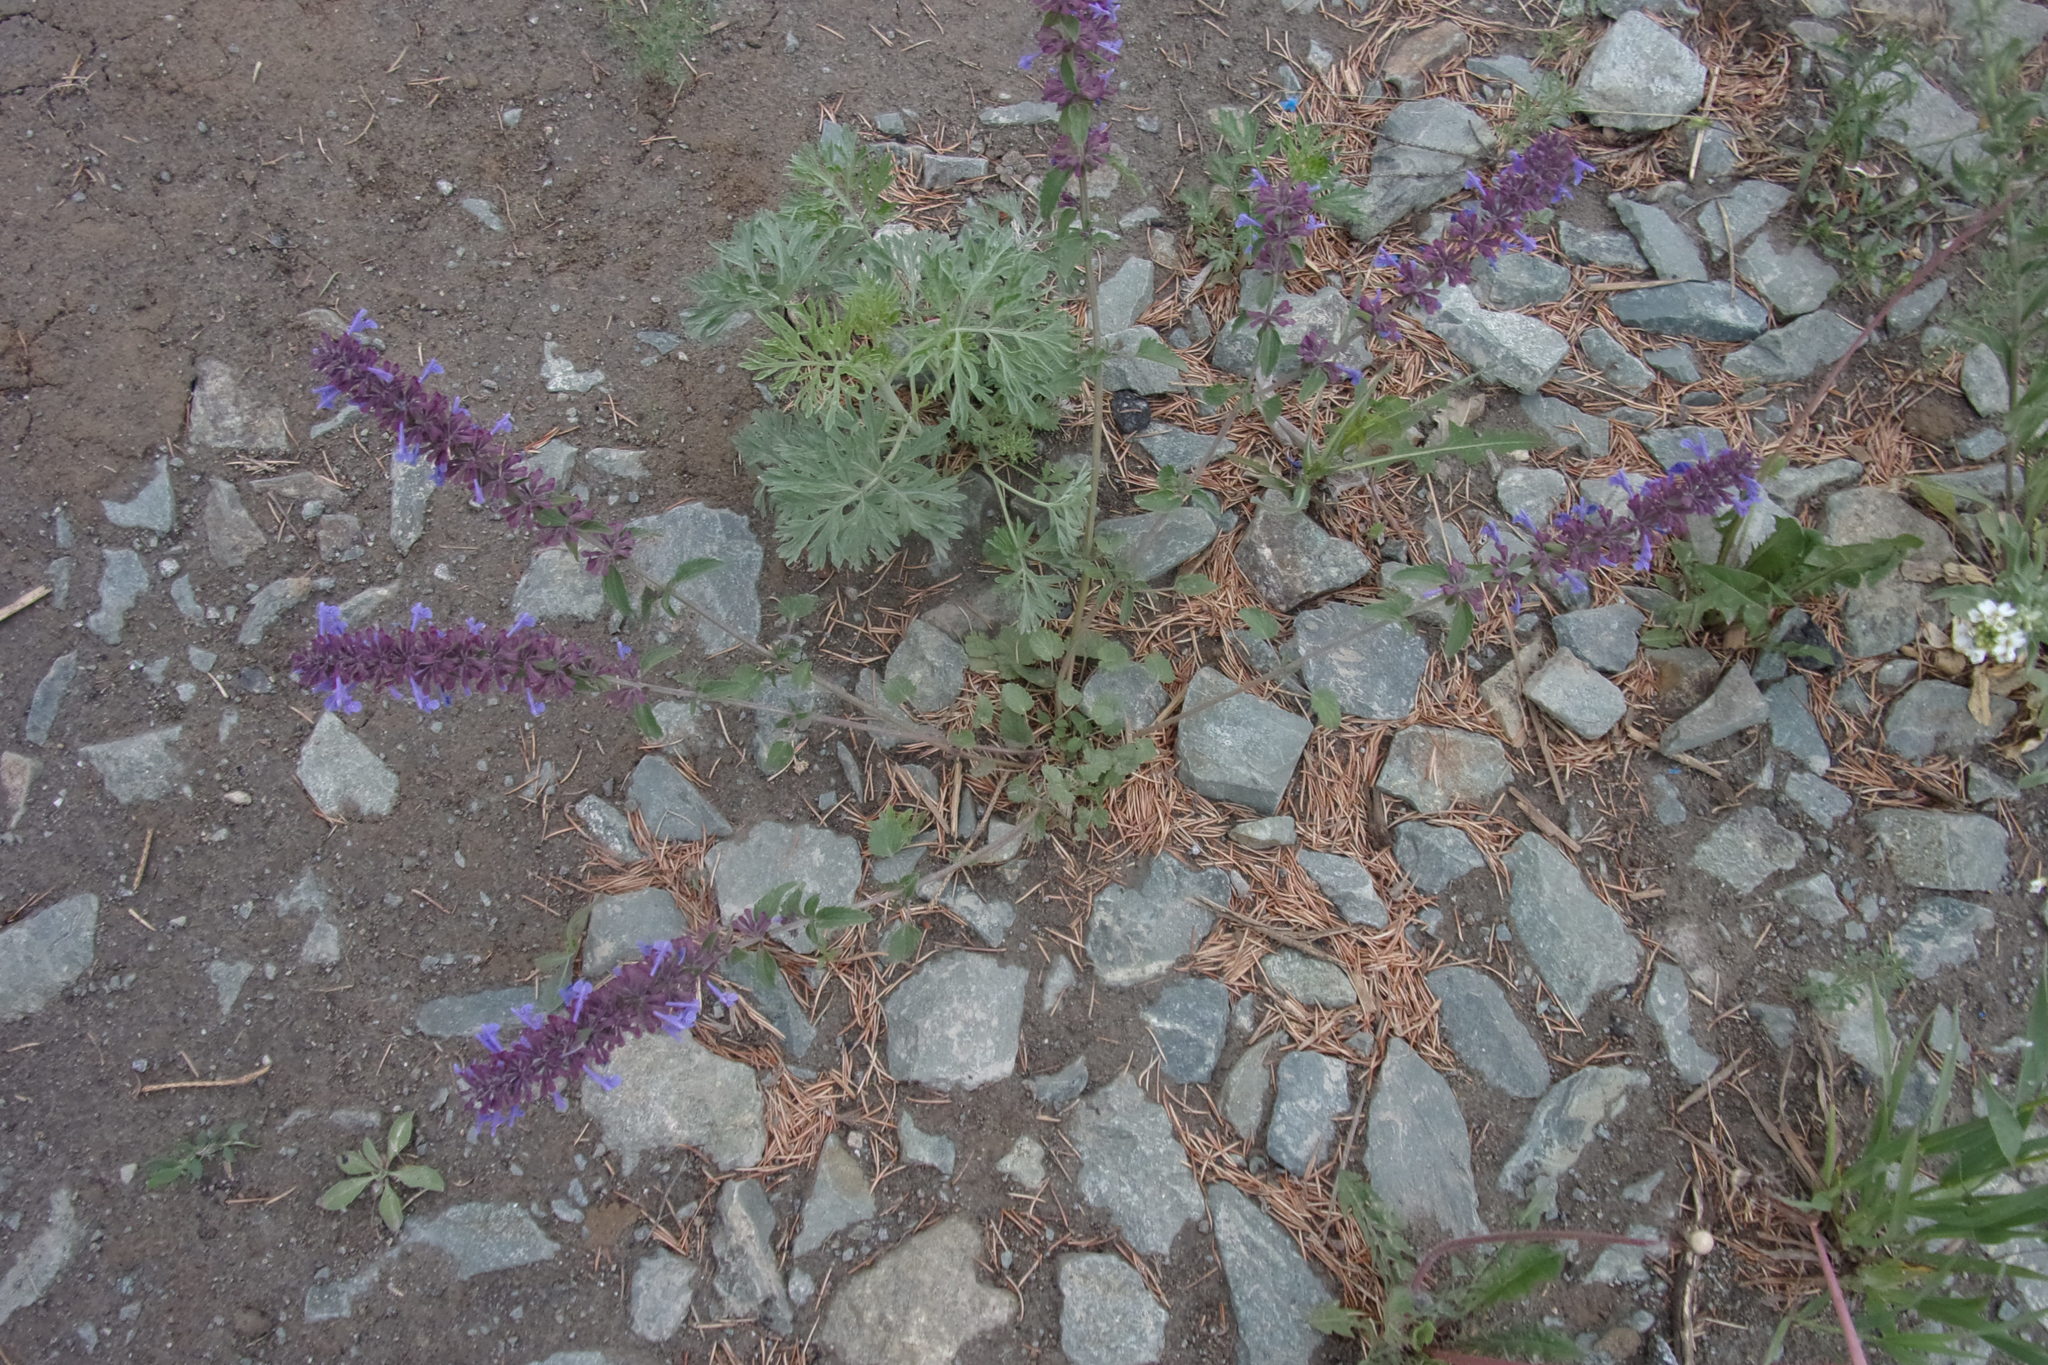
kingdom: Plantae
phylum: Tracheophyta
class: Magnoliopsida
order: Lamiales
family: Lamiaceae
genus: Dracocephalum
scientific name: Dracocephalum nutans
